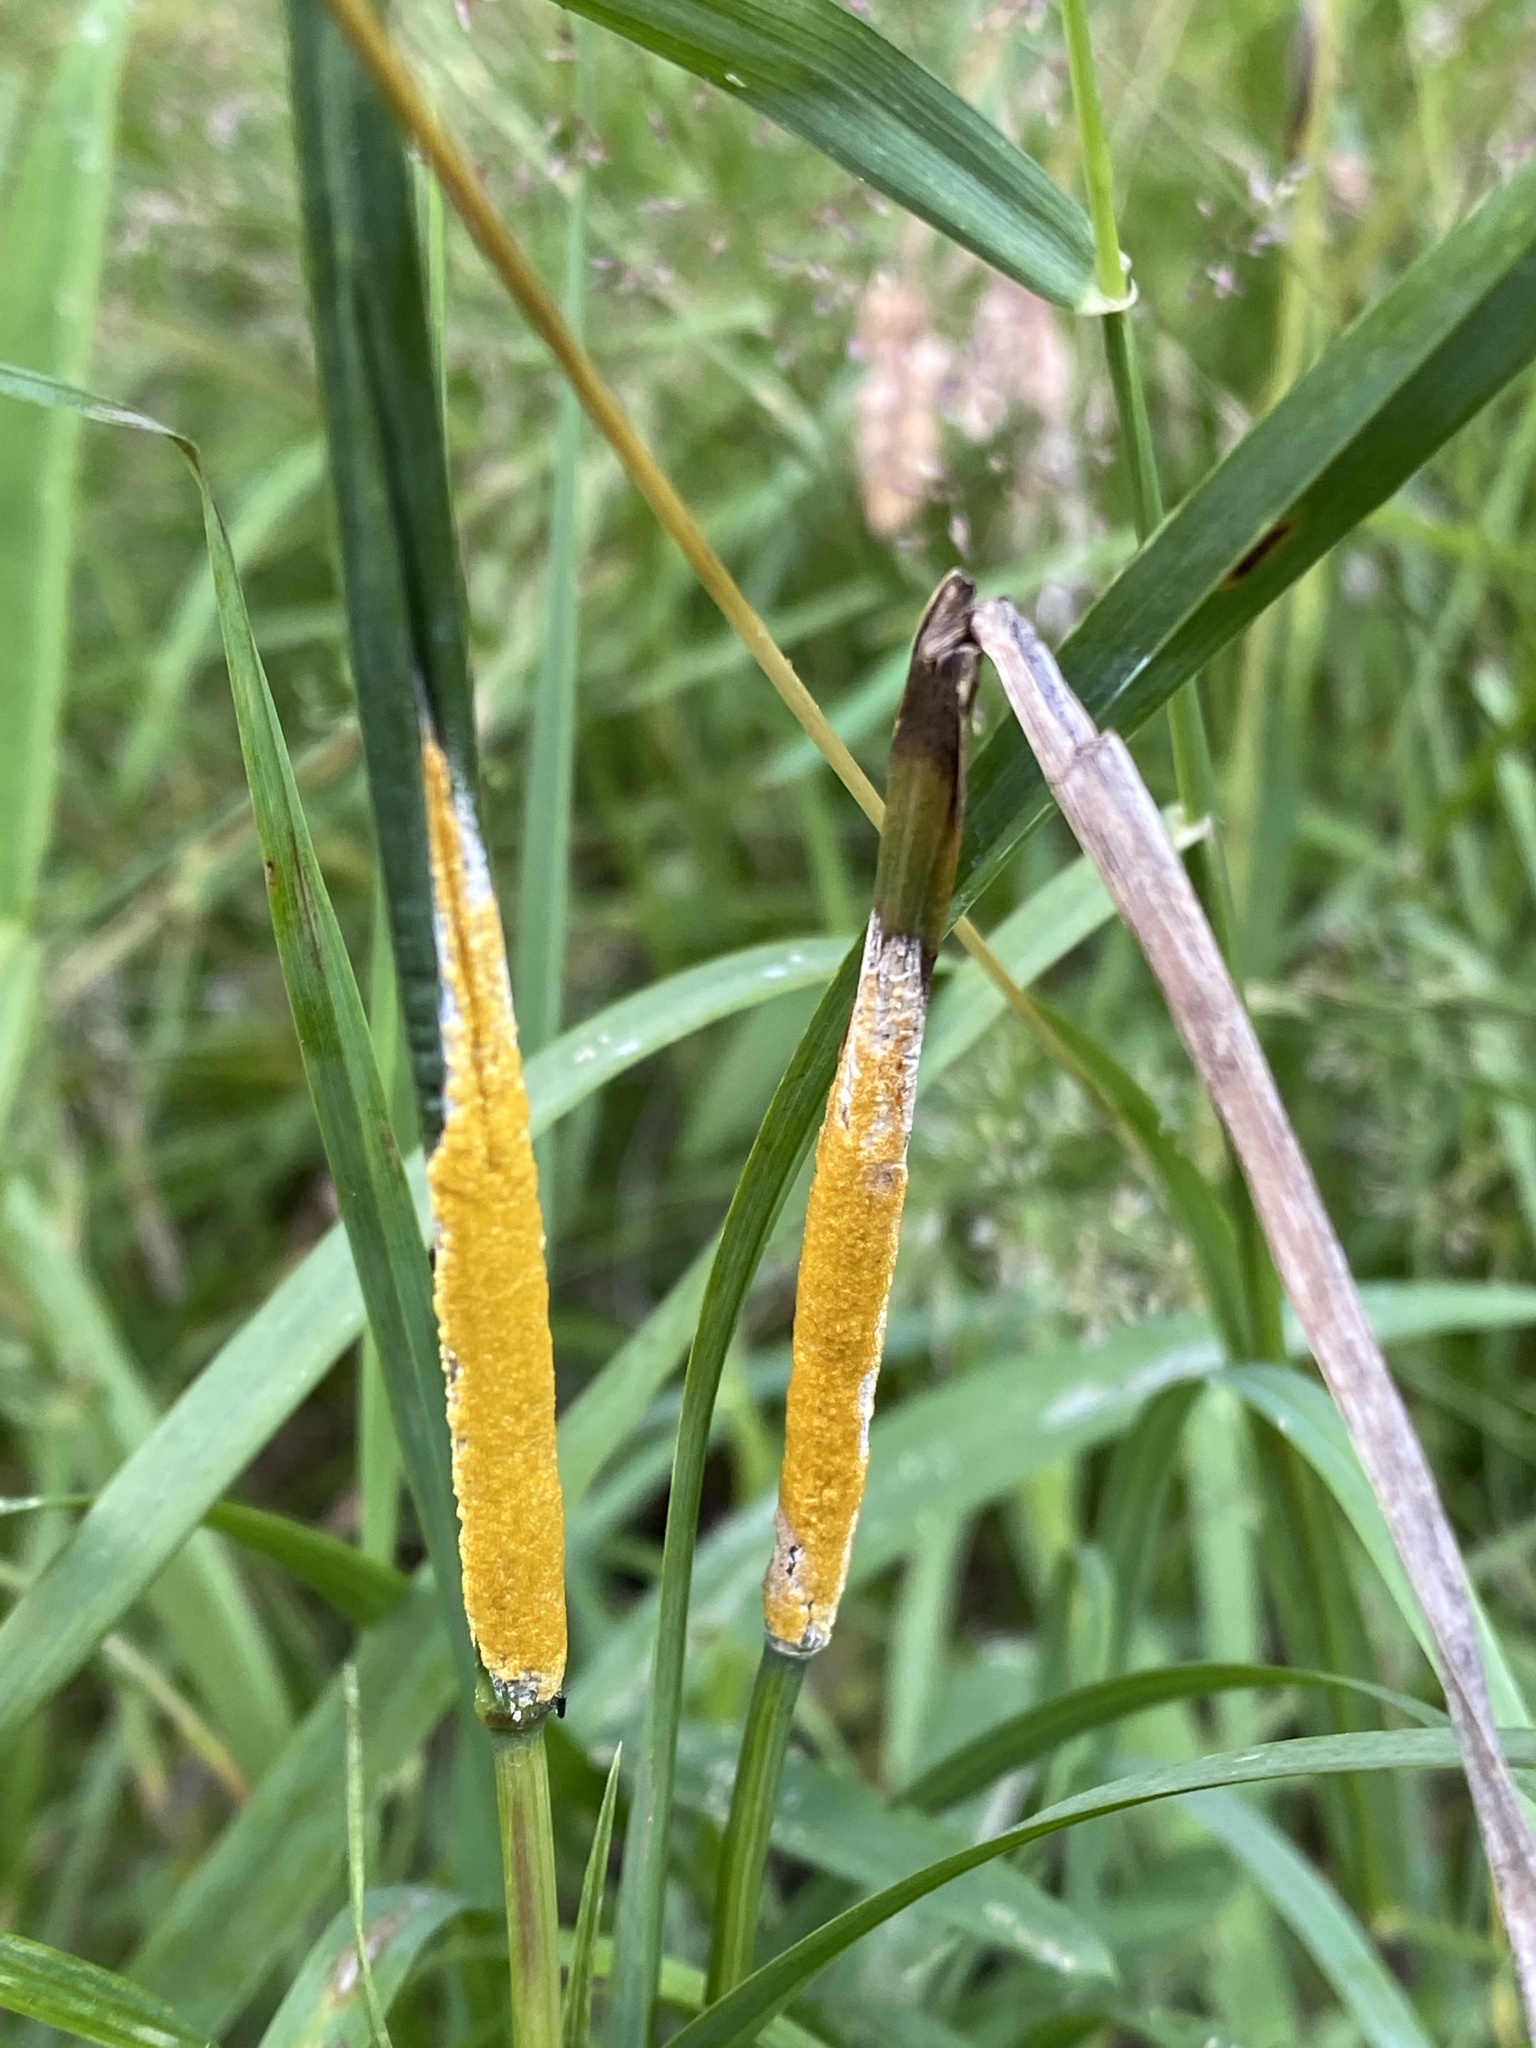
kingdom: Fungi
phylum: Ascomycota
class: Sordariomycetes
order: Hypocreales
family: Clavicipitaceae
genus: Epichloe
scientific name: Epichloe typhina
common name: Choke
